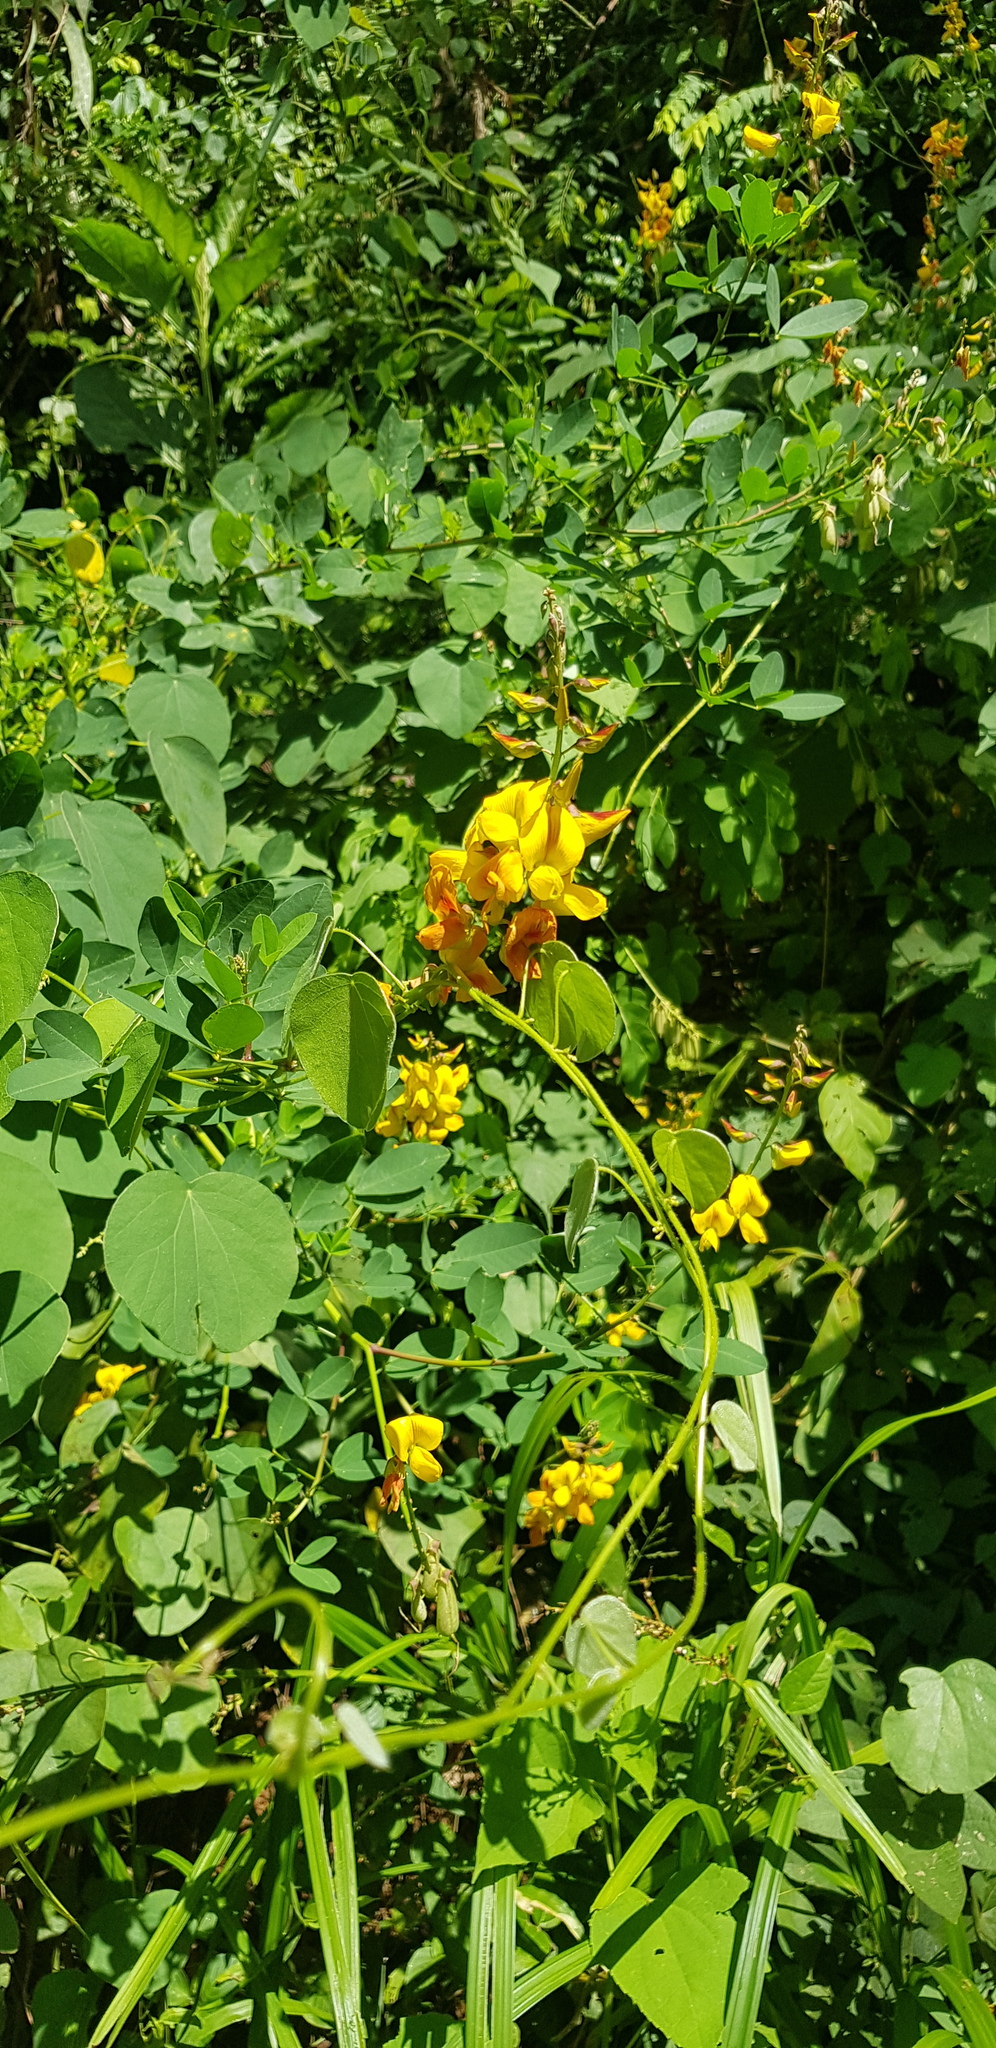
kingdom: Plantae
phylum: Tracheophyta
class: Magnoliopsida
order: Fabales
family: Fabaceae
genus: Crotalaria
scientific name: Crotalaria pumila
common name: Low rattlebox
